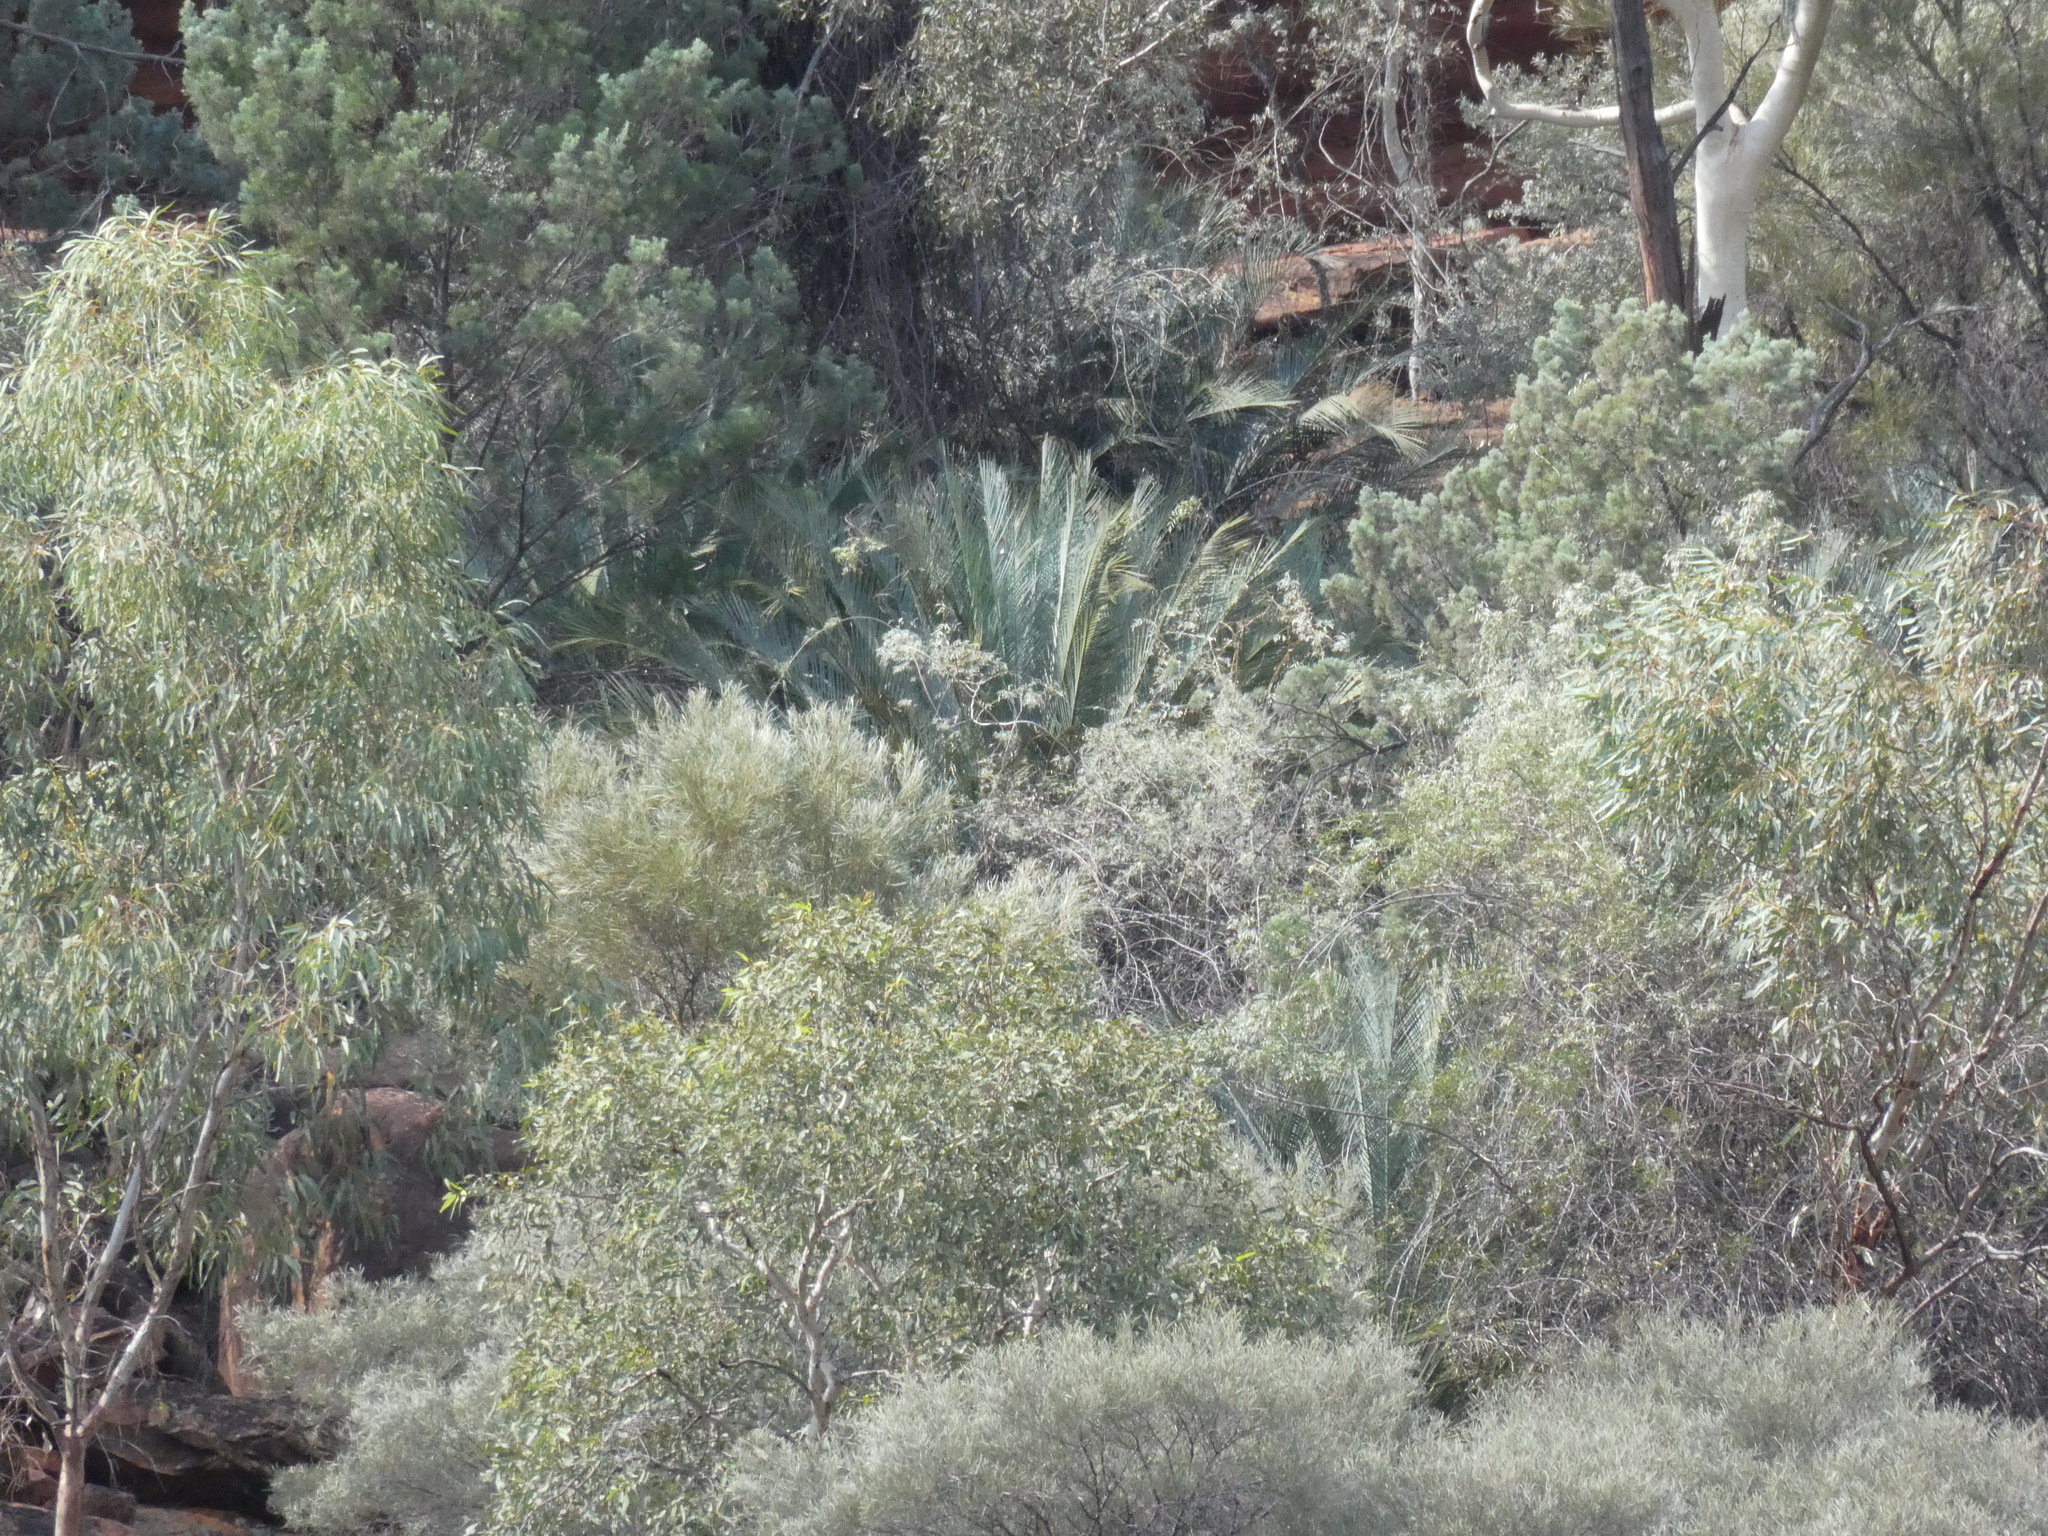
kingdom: Plantae
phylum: Tracheophyta
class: Cycadopsida
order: Cycadales
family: Zamiaceae
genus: Macrozamia
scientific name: Macrozamia macdonnellii
